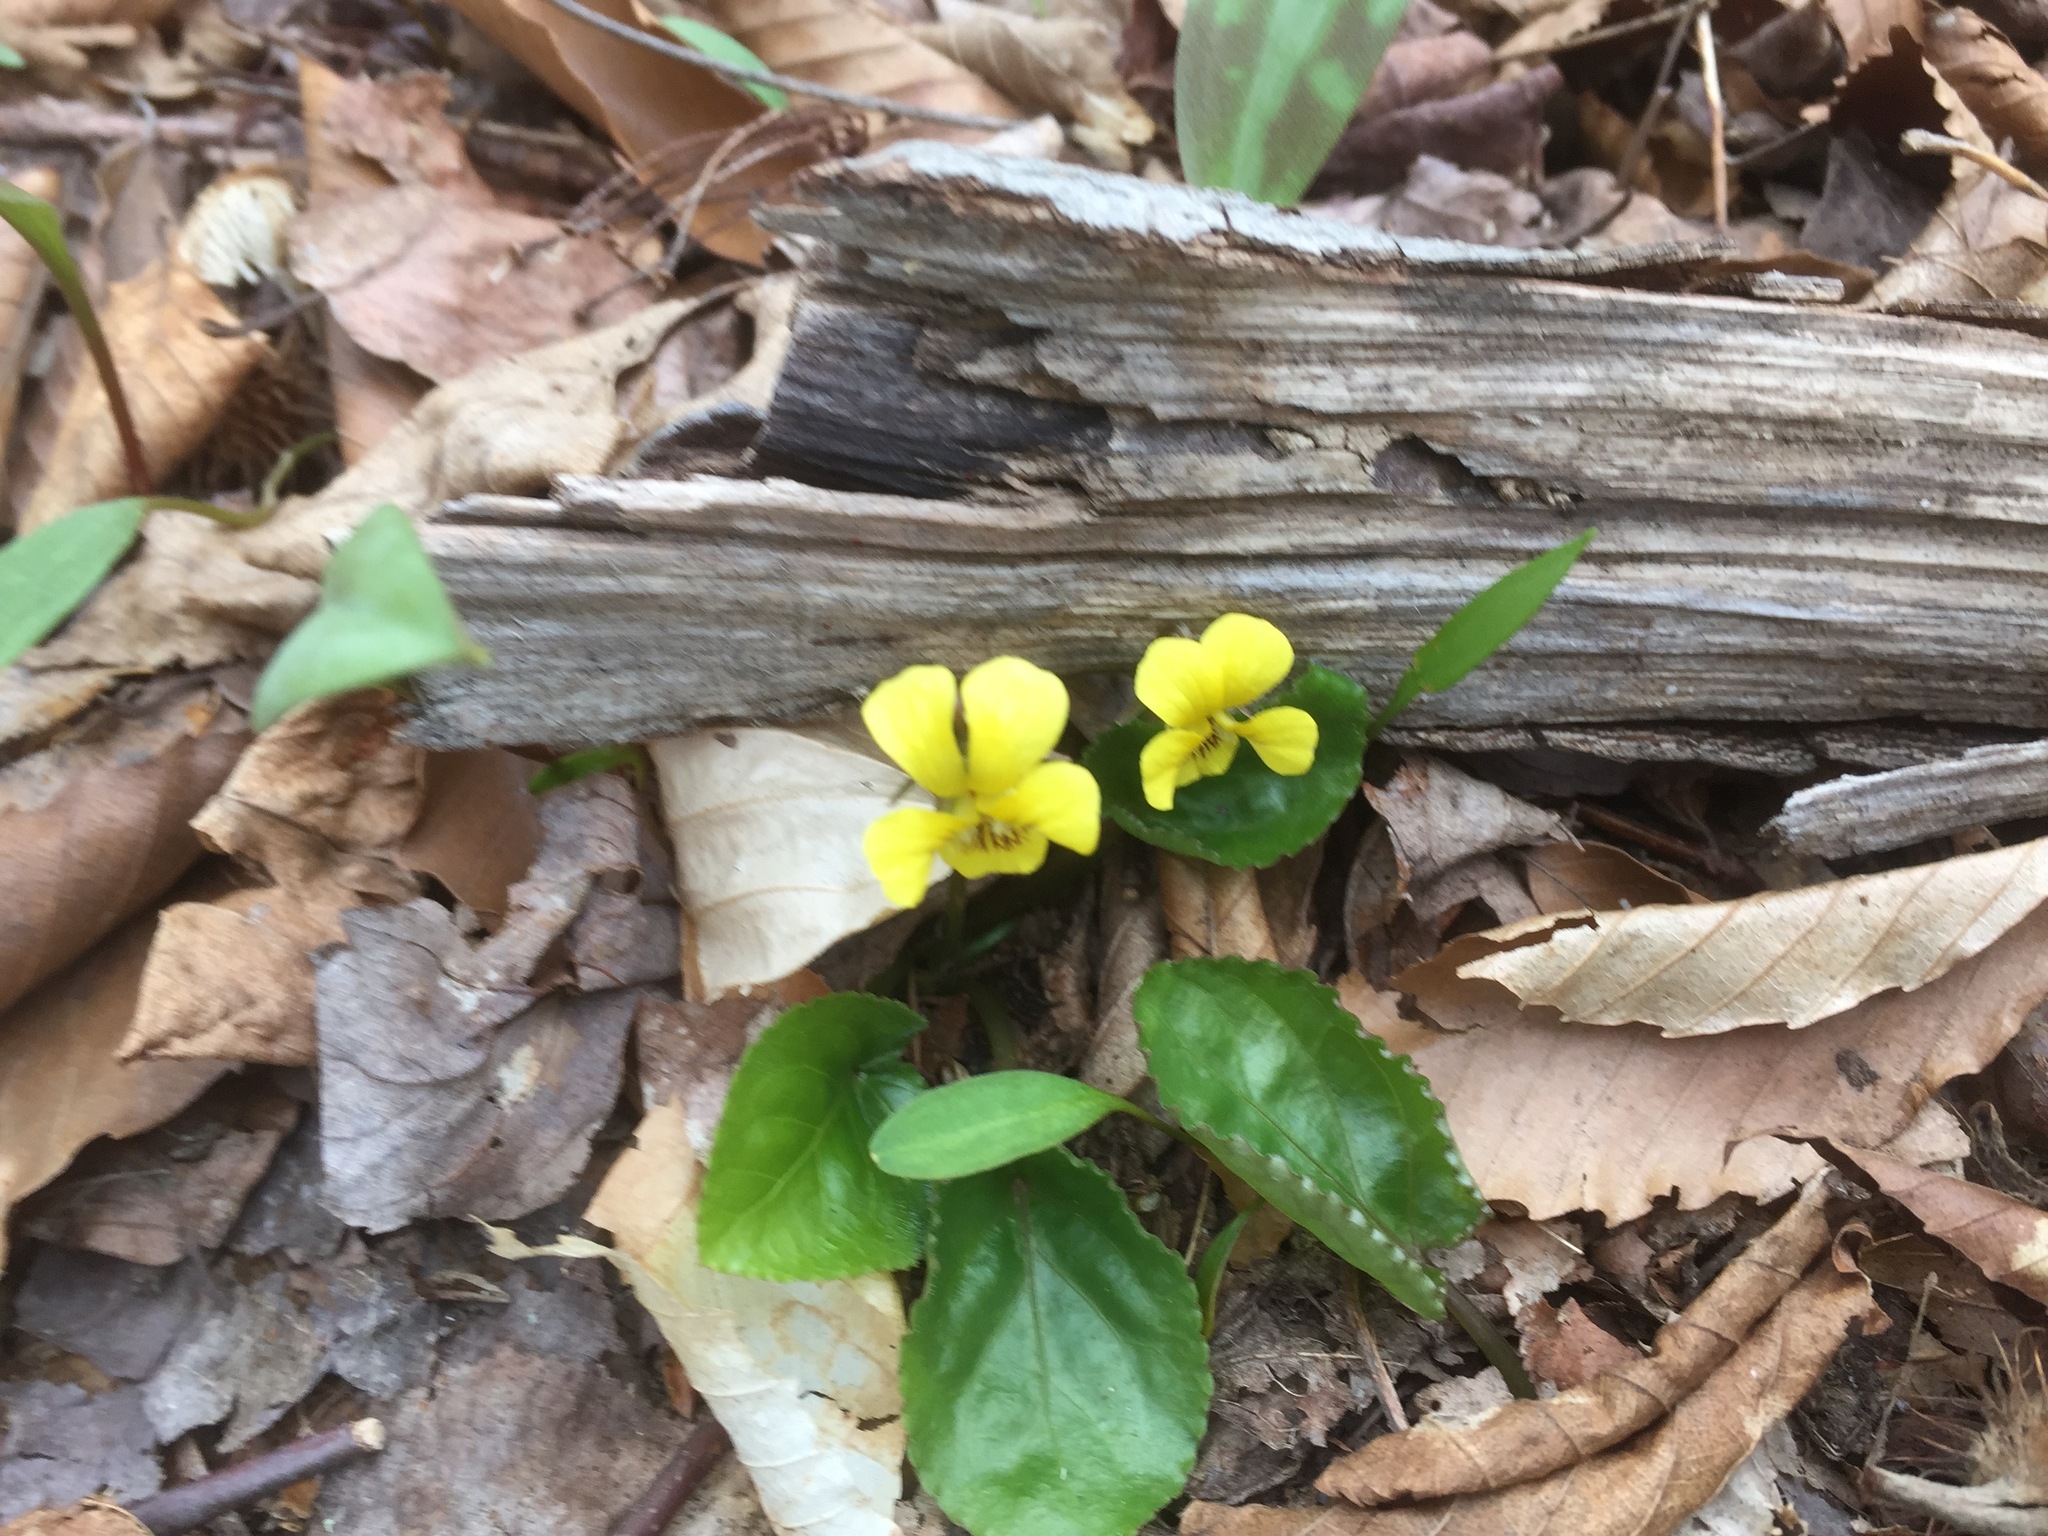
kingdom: Plantae
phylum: Tracheophyta
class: Magnoliopsida
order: Malpighiales
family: Violaceae
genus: Viola
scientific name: Viola rotundifolia
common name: Early yellow violet
